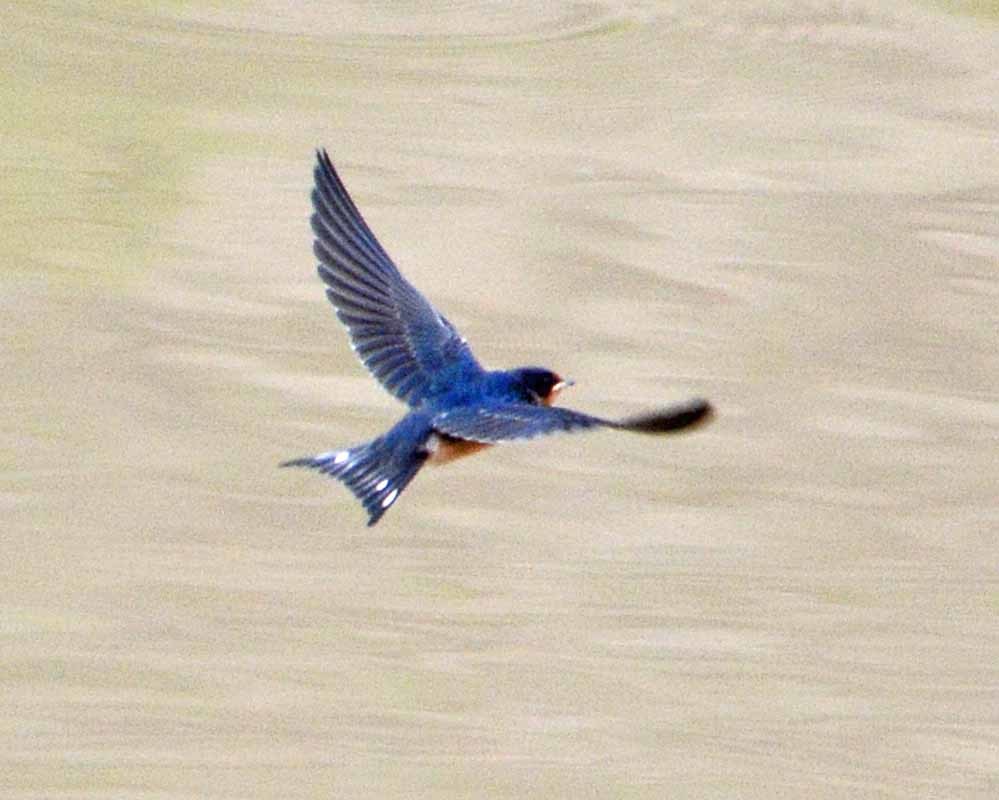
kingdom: Animalia
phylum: Chordata
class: Aves
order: Passeriformes
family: Hirundinidae
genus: Hirundo
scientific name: Hirundo rustica
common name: Barn swallow
